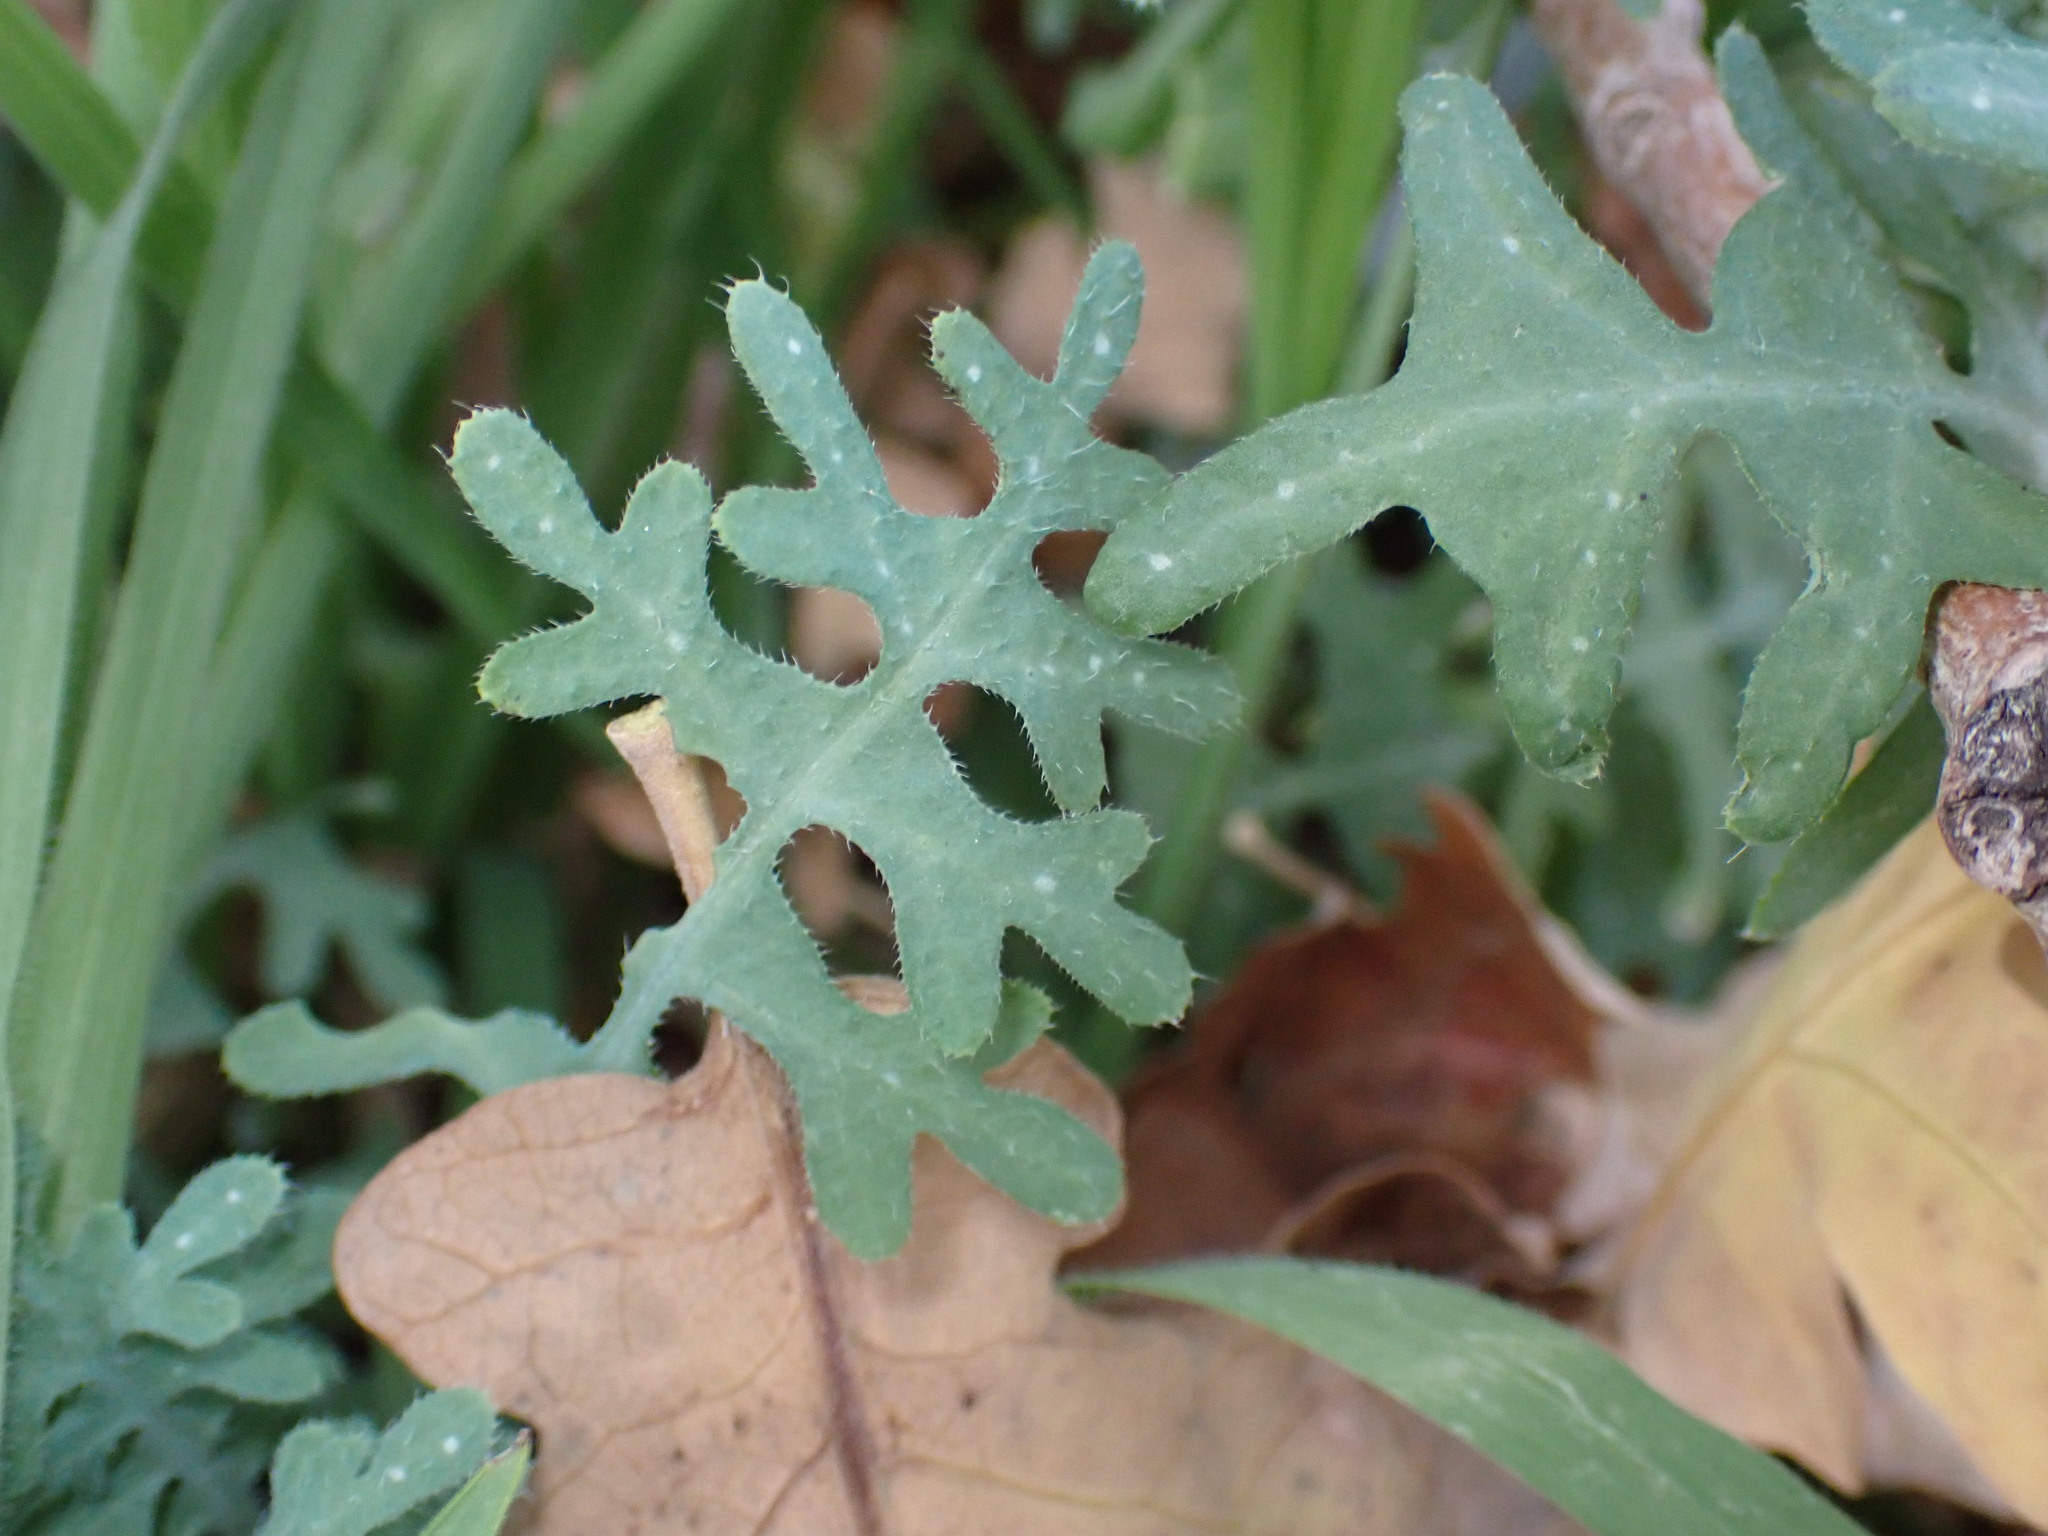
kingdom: Plantae
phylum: Tracheophyta
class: Magnoliopsida
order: Boraginales
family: Hydrophyllaceae
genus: Pholistoma
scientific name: Pholistoma membranaceum
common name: White fiesta-flower
